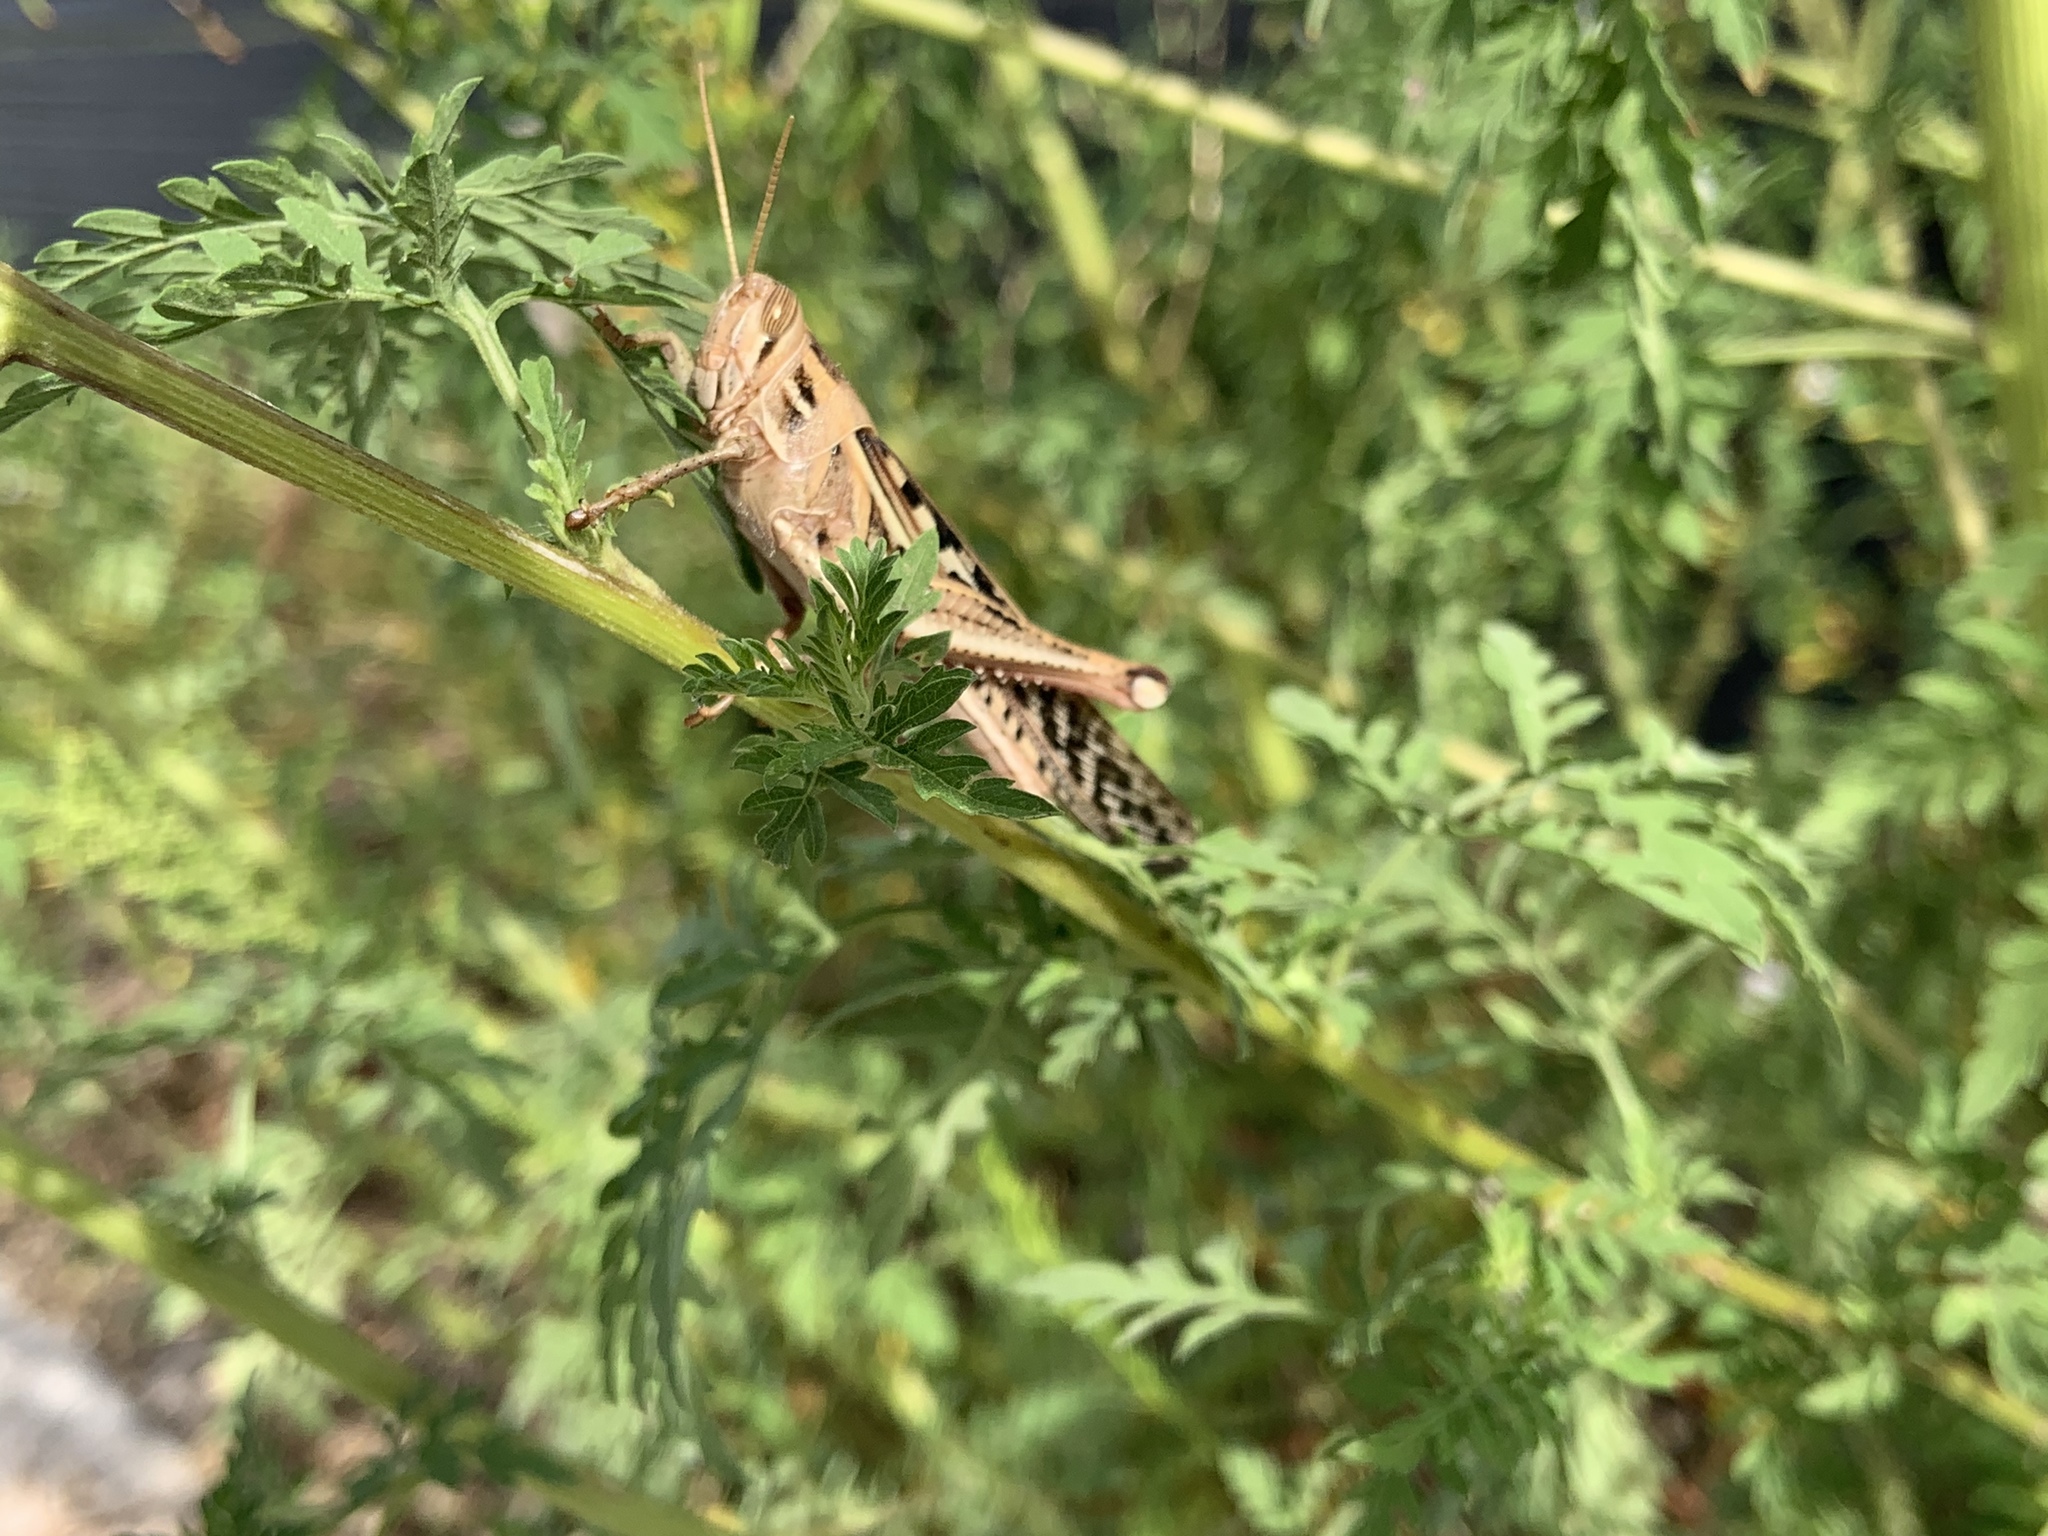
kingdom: Animalia
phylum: Arthropoda
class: Insecta
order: Orthoptera
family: Acrididae
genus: Schistocerca
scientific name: Schistocerca americana
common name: American bird locust
